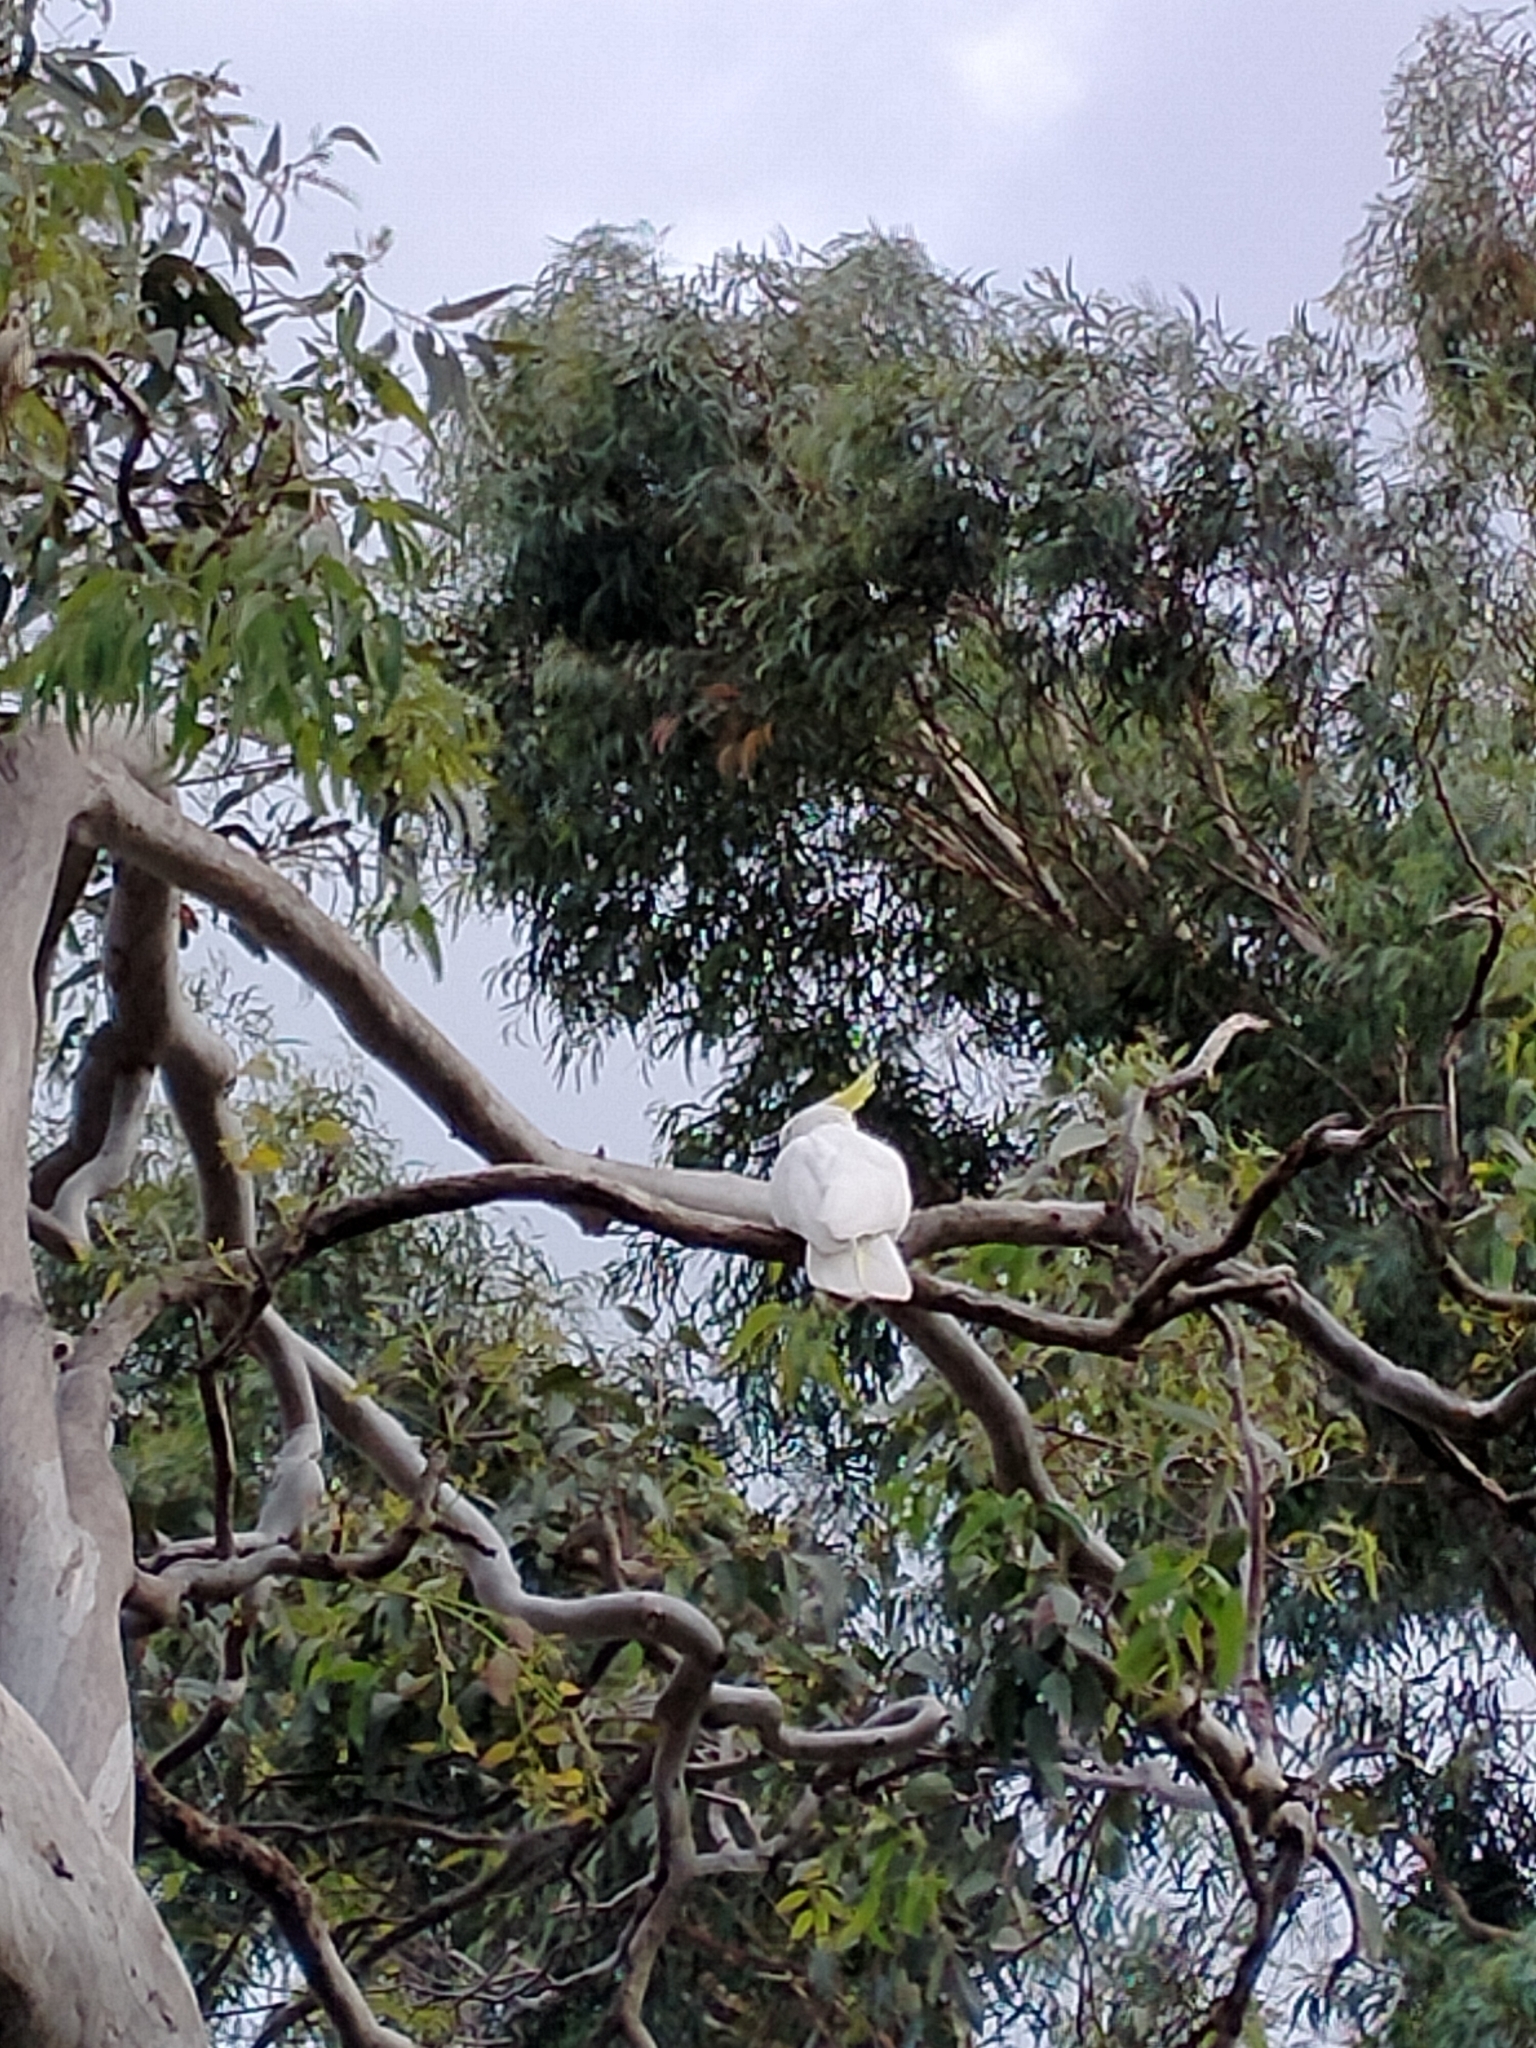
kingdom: Animalia
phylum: Chordata
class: Aves
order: Psittaciformes
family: Psittacidae
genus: Cacatua
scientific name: Cacatua galerita
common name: Sulphur-crested cockatoo
